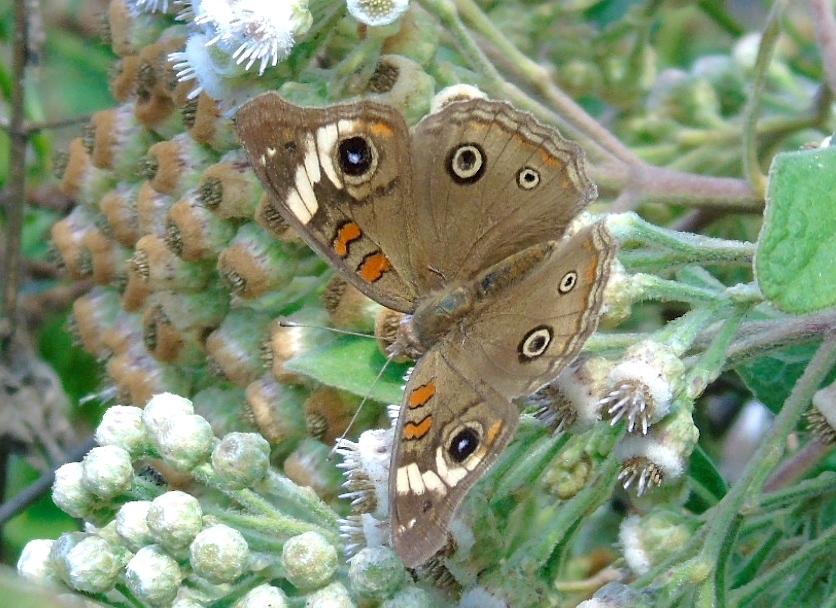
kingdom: Animalia
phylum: Arthropoda
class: Insecta
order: Lepidoptera
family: Nymphalidae
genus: Junonia
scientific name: Junonia coenia
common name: Common buckeye
